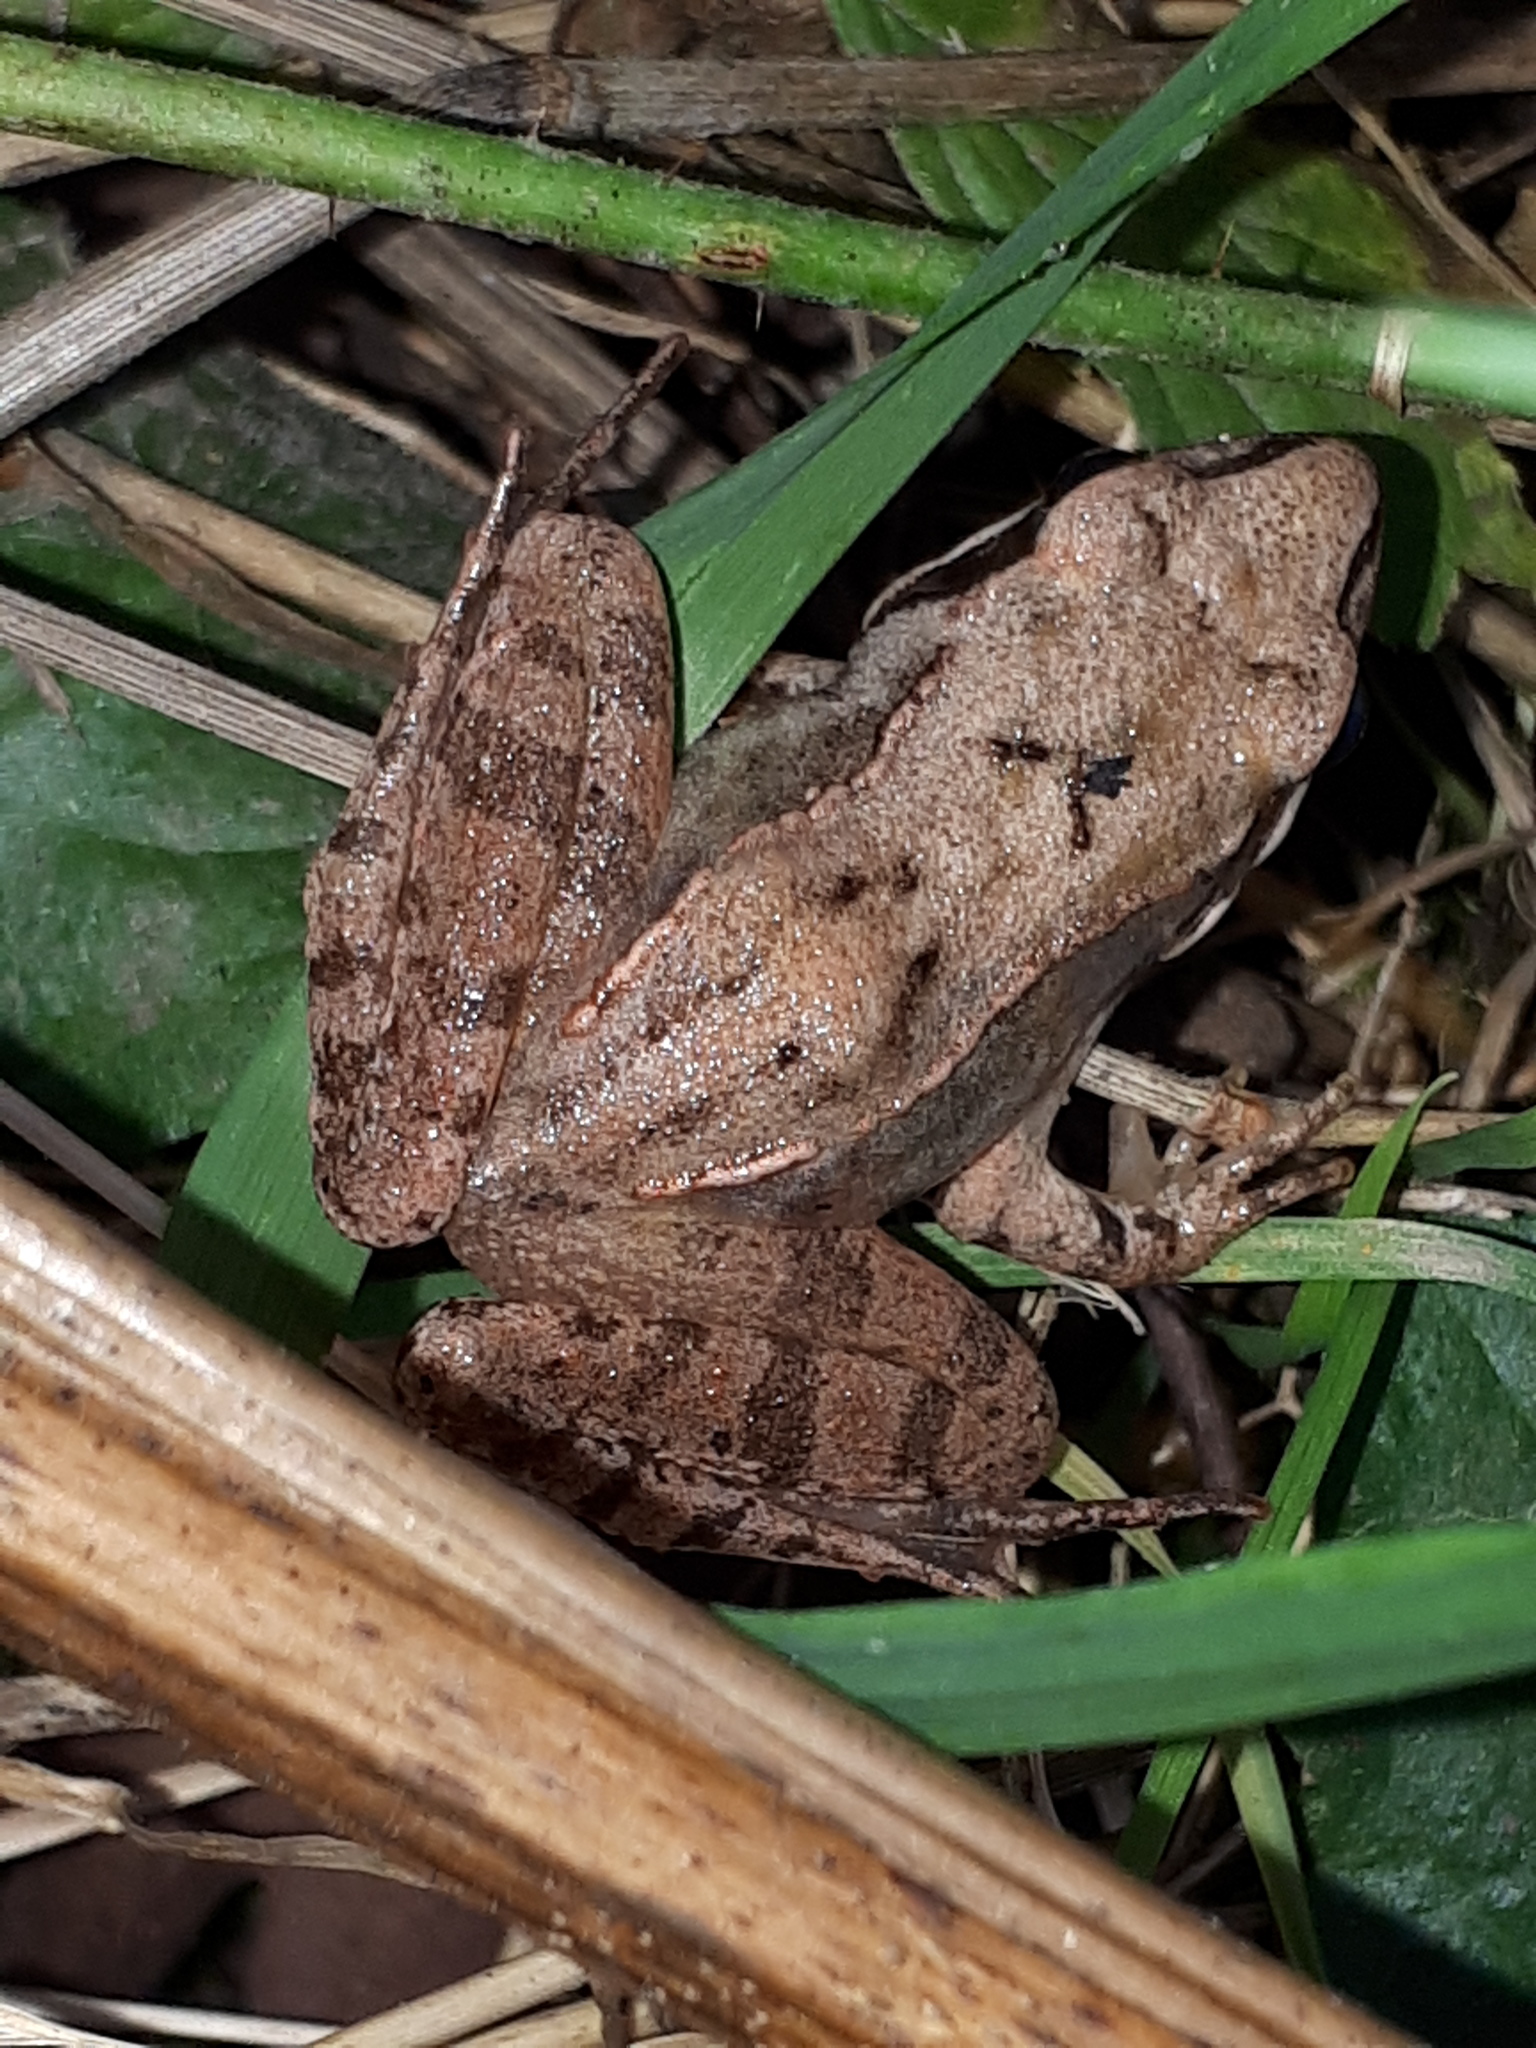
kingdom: Animalia
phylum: Chordata
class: Amphibia
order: Anura
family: Ranidae
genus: Rana
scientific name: Rana dalmatina
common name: Agile frog
